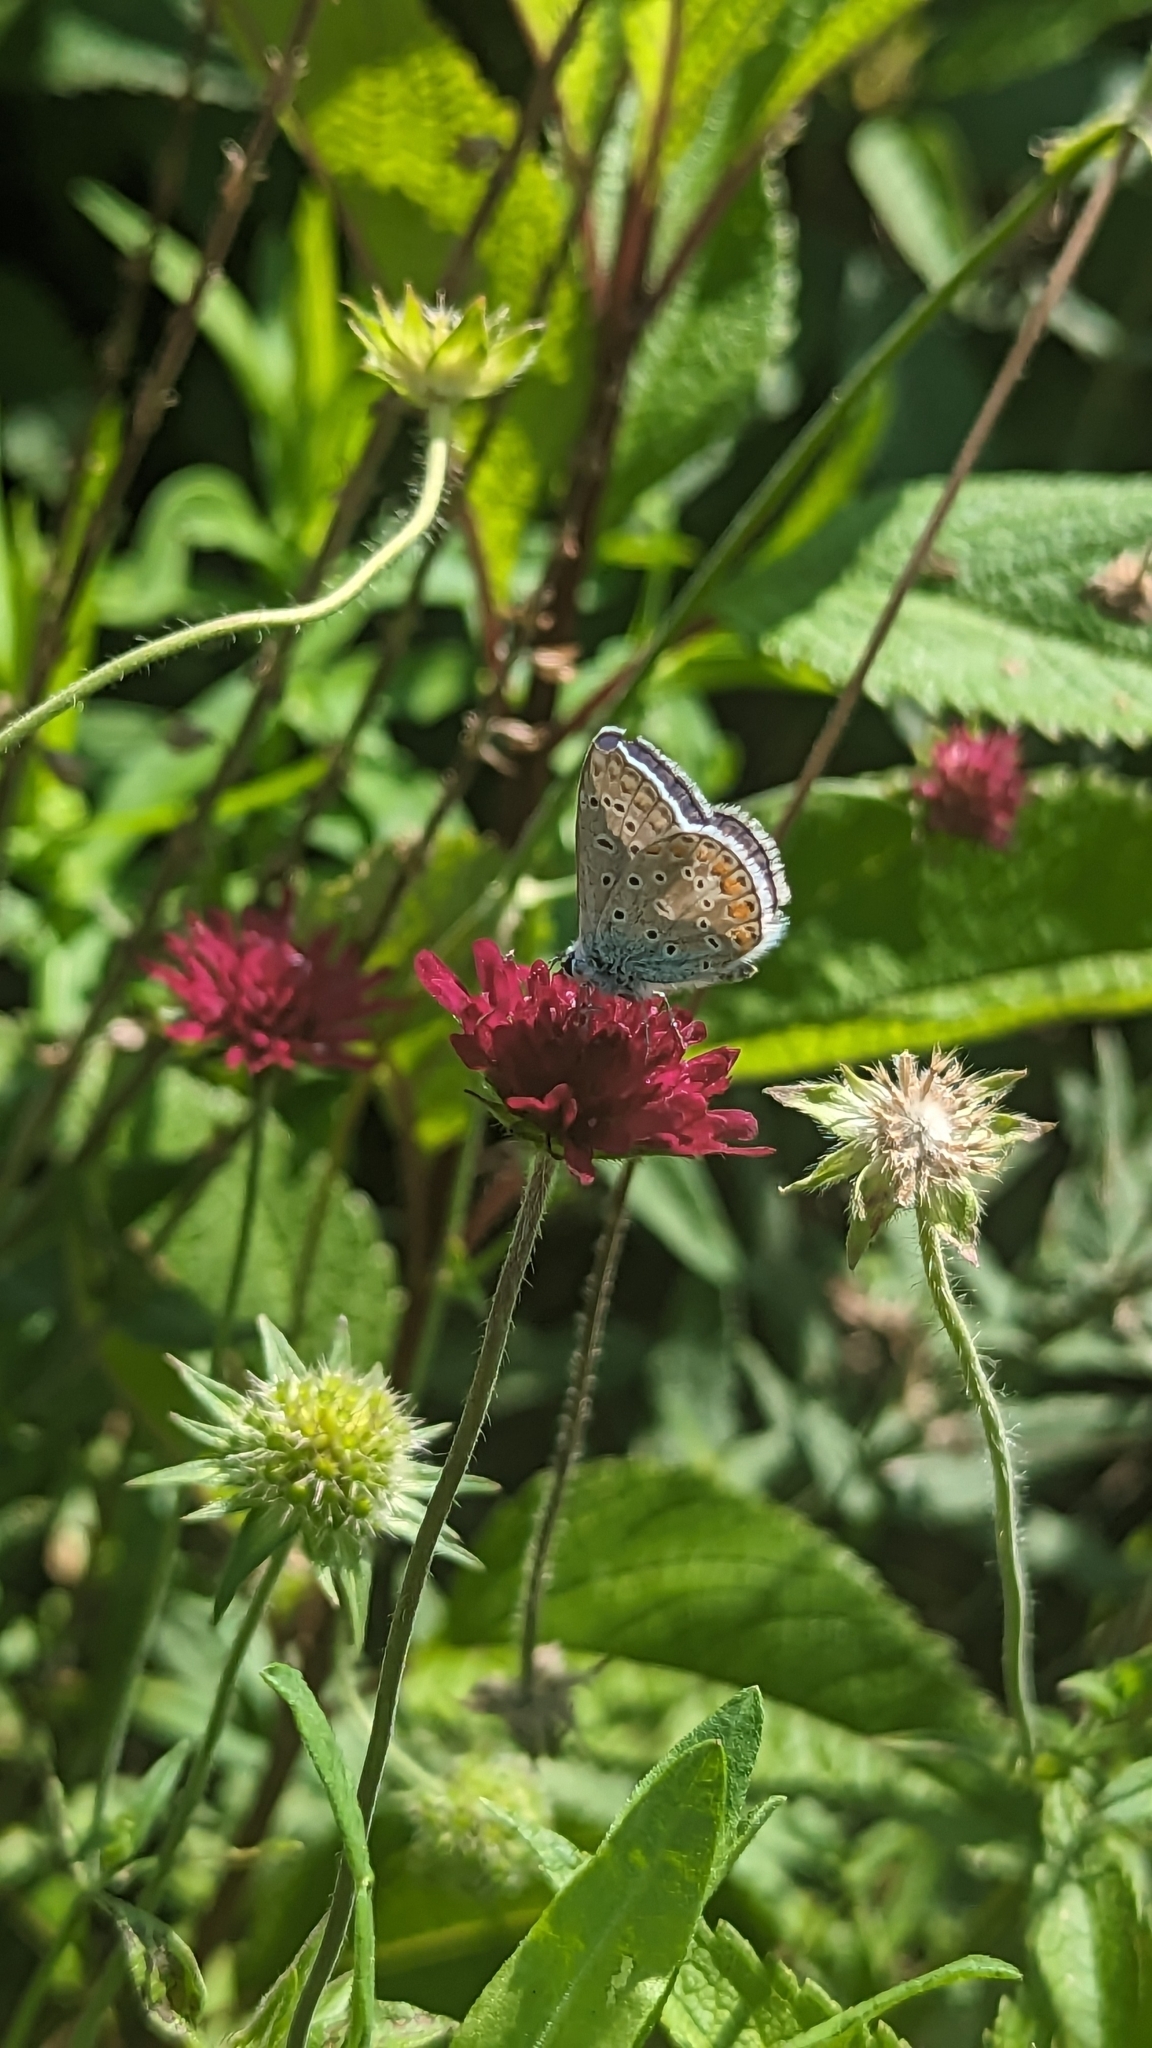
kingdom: Animalia
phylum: Arthropoda
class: Insecta
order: Lepidoptera
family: Lycaenidae
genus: Polyommatus
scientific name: Polyommatus icarus
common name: Common blue
